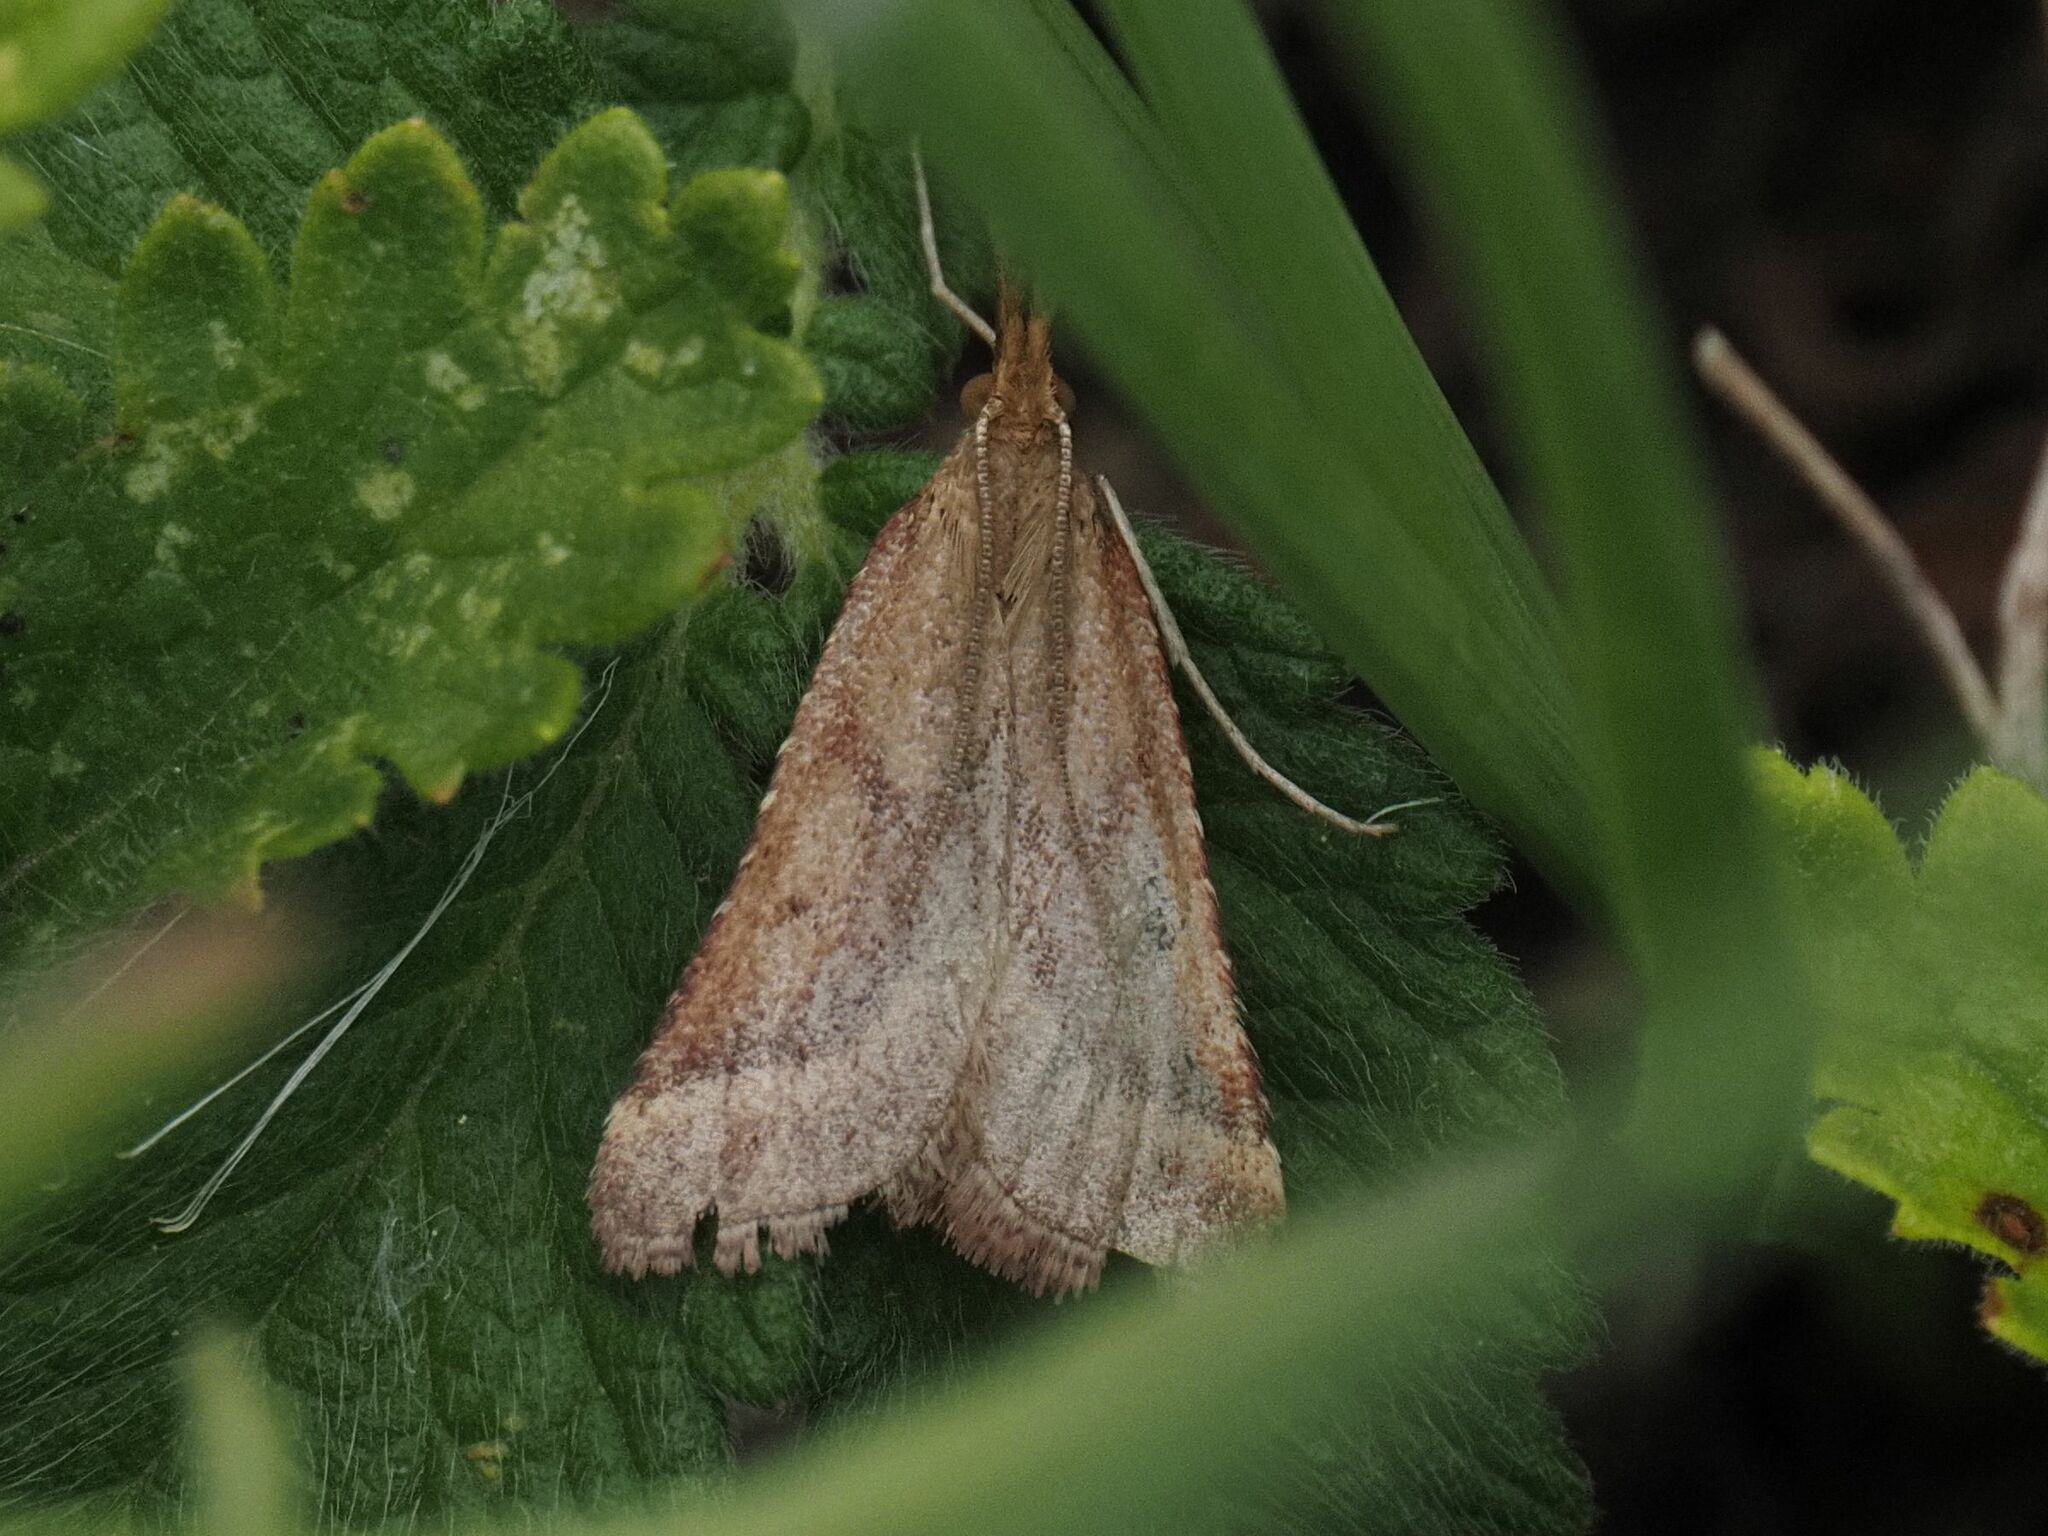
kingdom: Animalia
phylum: Arthropoda
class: Insecta
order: Lepidoptera
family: Pyralidae
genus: Synaphe
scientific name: Synaphe punctalis
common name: Long-legged tabby
